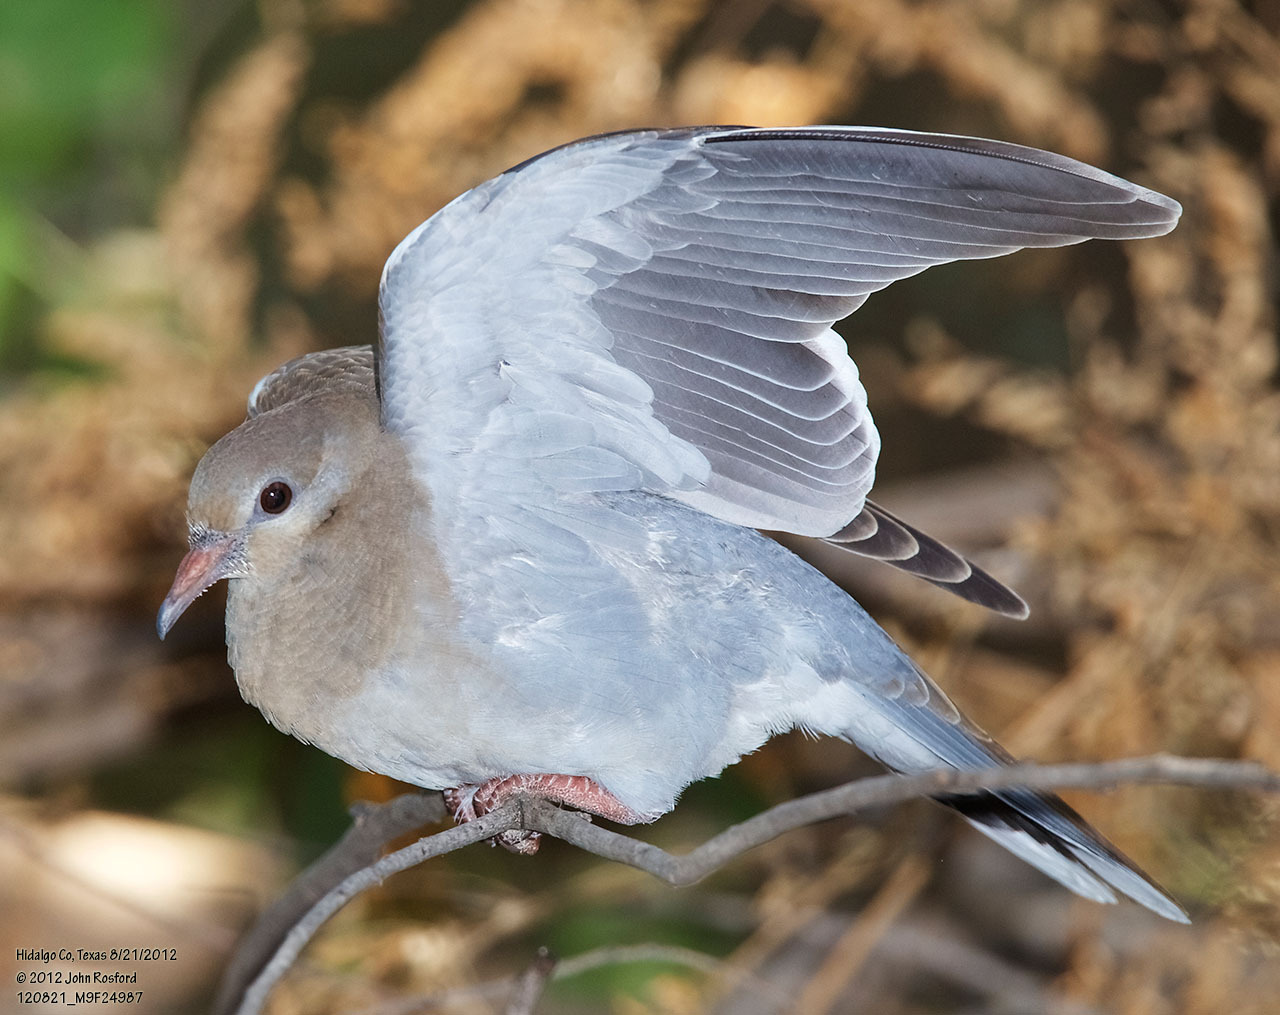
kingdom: Animalia
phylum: Chordata
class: Aves
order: Columbiformes
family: Columbidae
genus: Zenaida
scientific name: Zenaida asiatica
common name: White-winged dove
